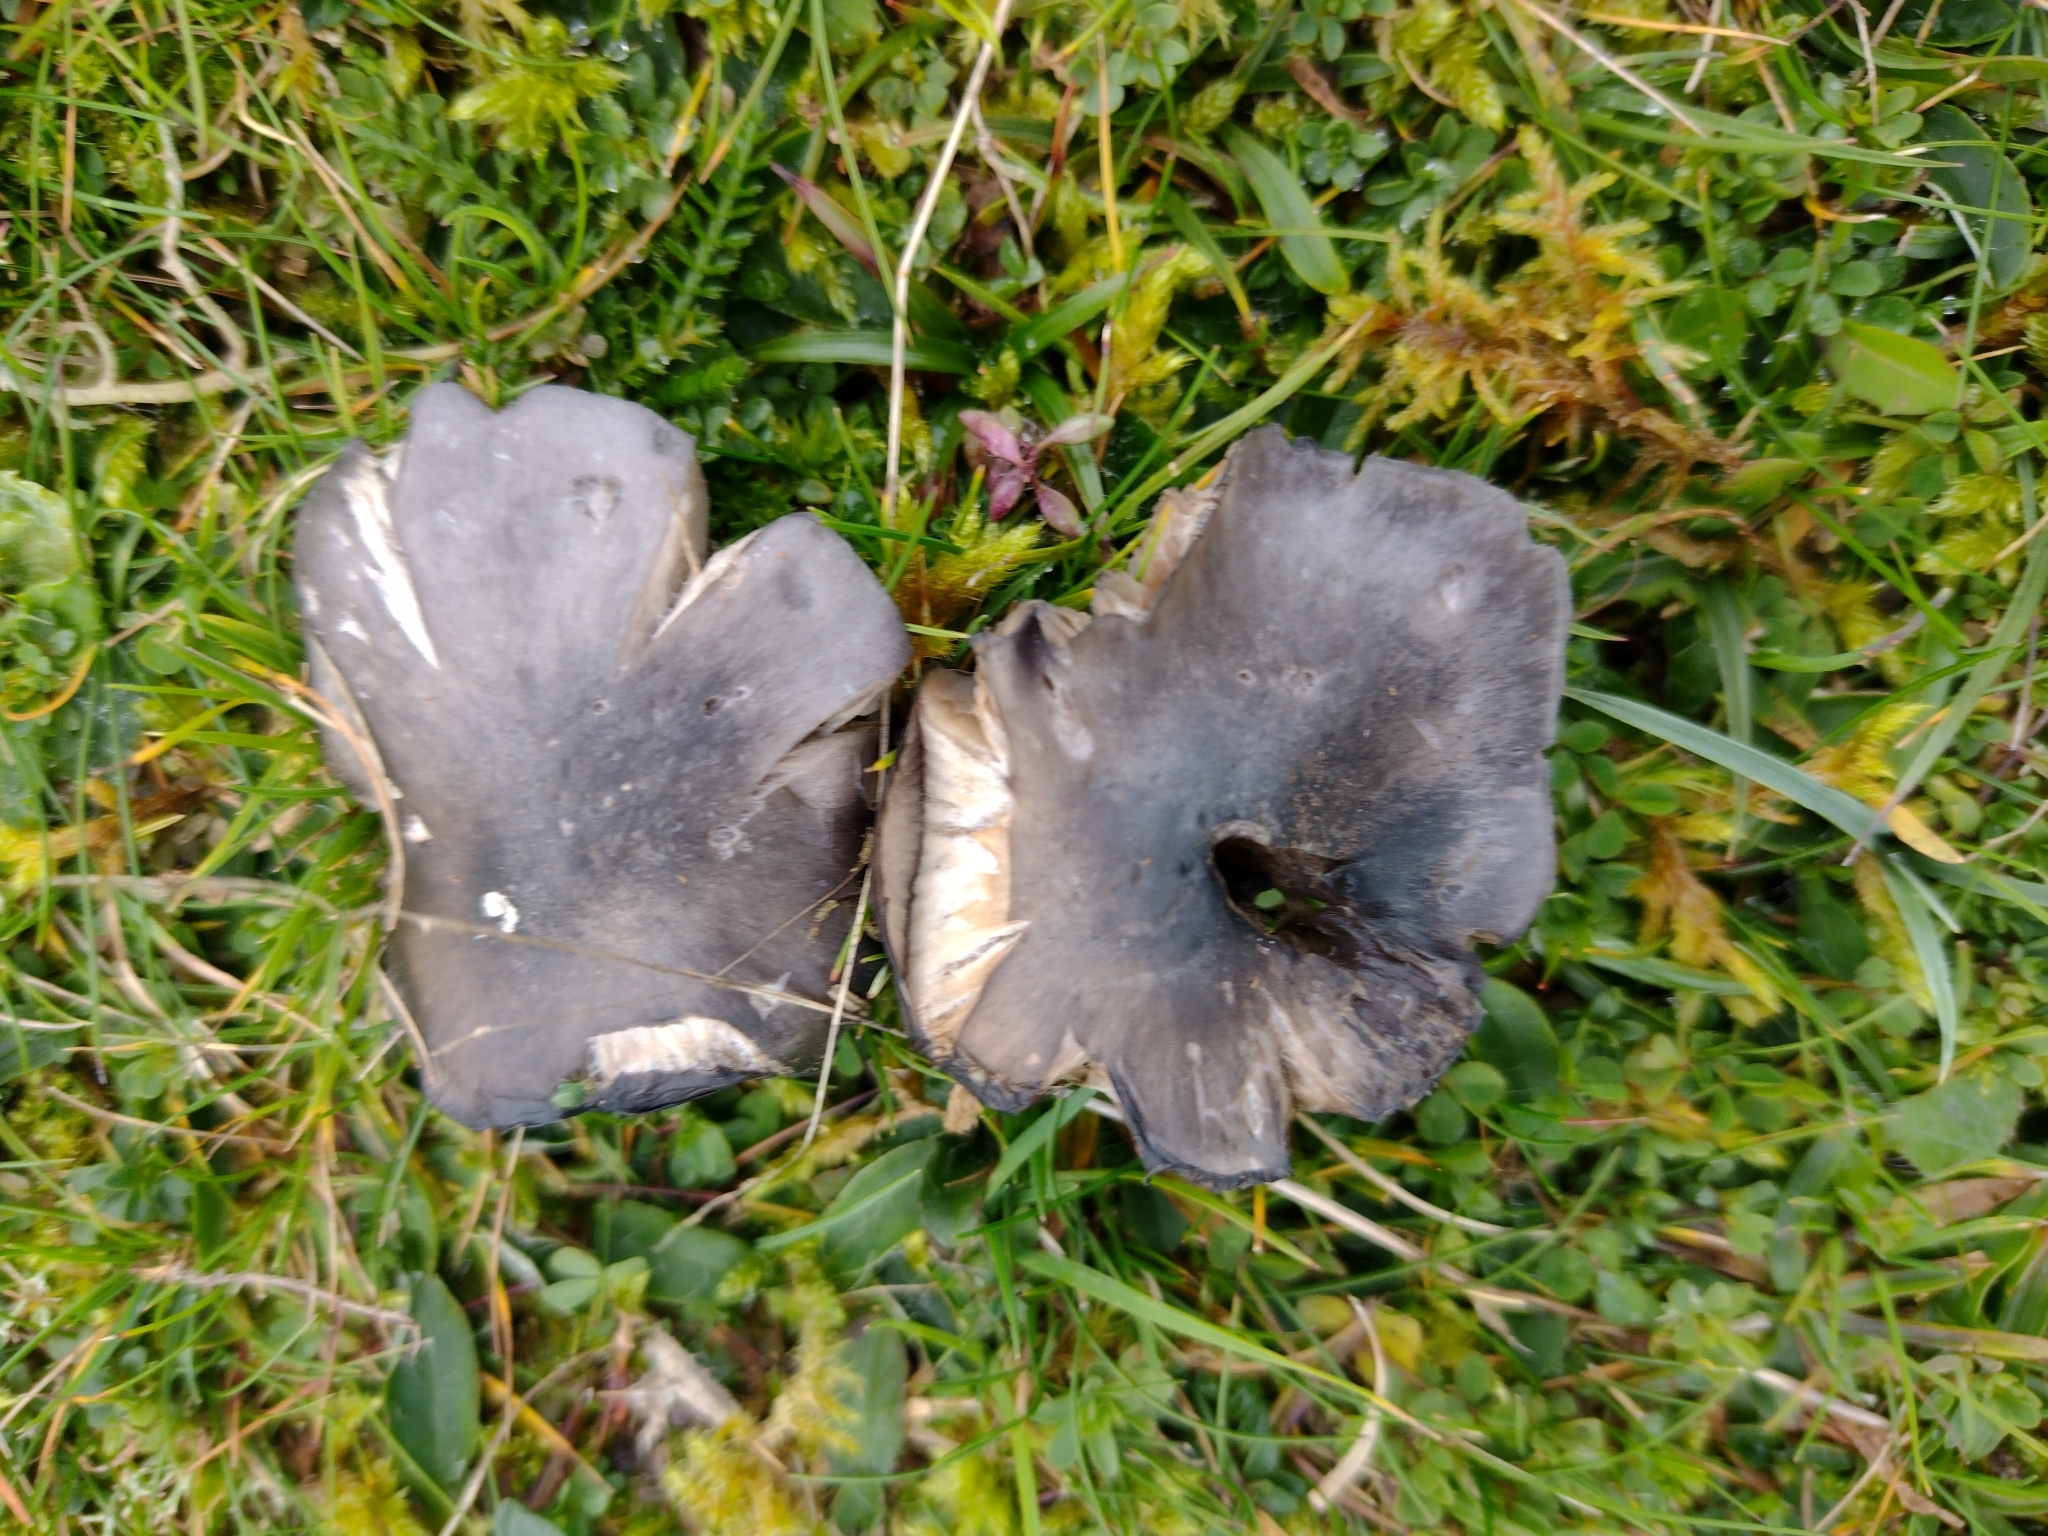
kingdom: Fungi
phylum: Basidiomycota
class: Agaricomycetes
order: Agaricales
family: Entolomataceae
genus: Entoloma
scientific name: Entoloma atromadidum
